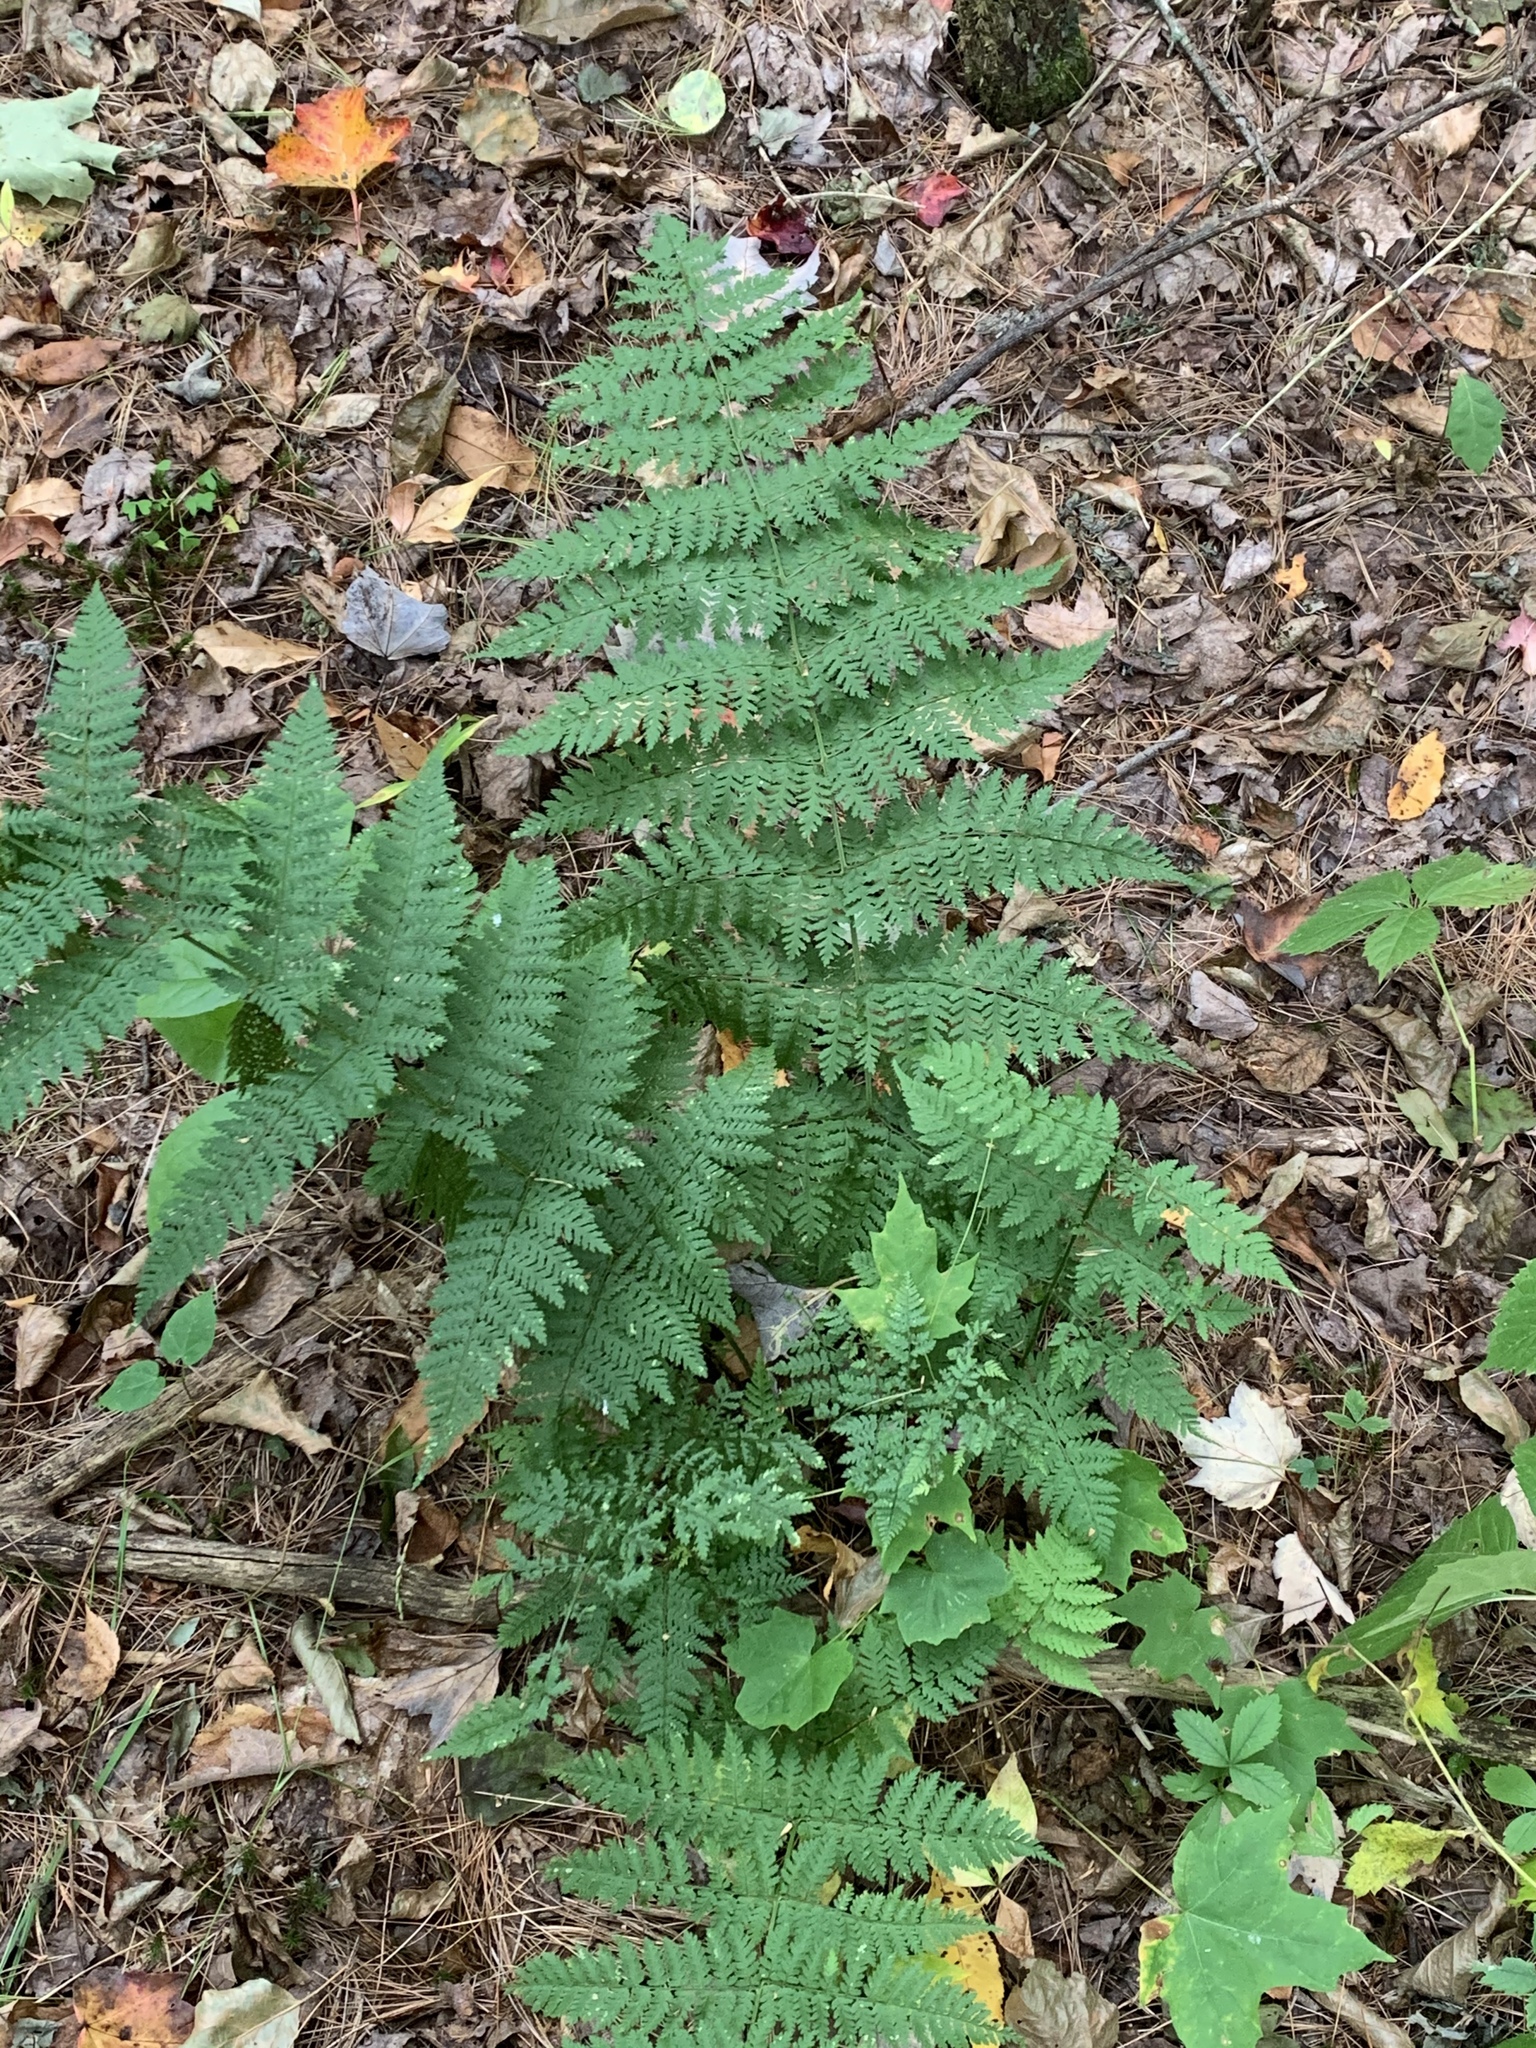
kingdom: Plantae
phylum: Tracheophyta
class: Polypodiopsida
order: Polypodiales
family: Dryopteridaceae
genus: Dryopteris
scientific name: Dryopteris intermedia
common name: Evergreen wood fern
